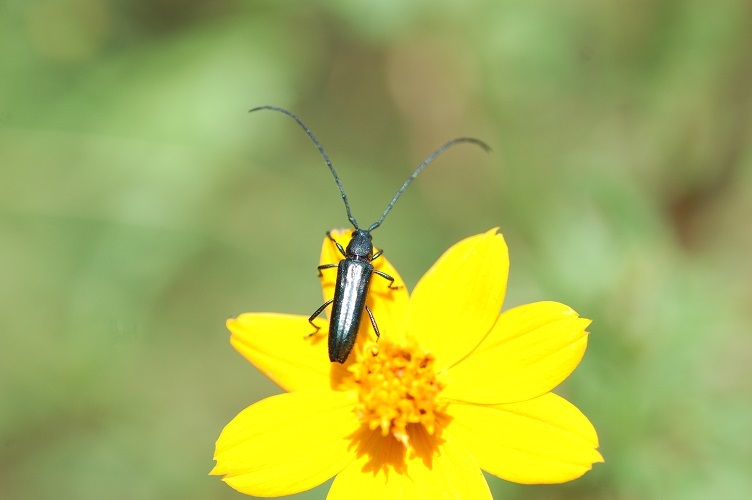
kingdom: Animalia
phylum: Arthropoda
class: Insecta
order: Coleoptera
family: Cerambycidae
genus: Ischnocnemis
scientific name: Ischnocnemis caerulescens
